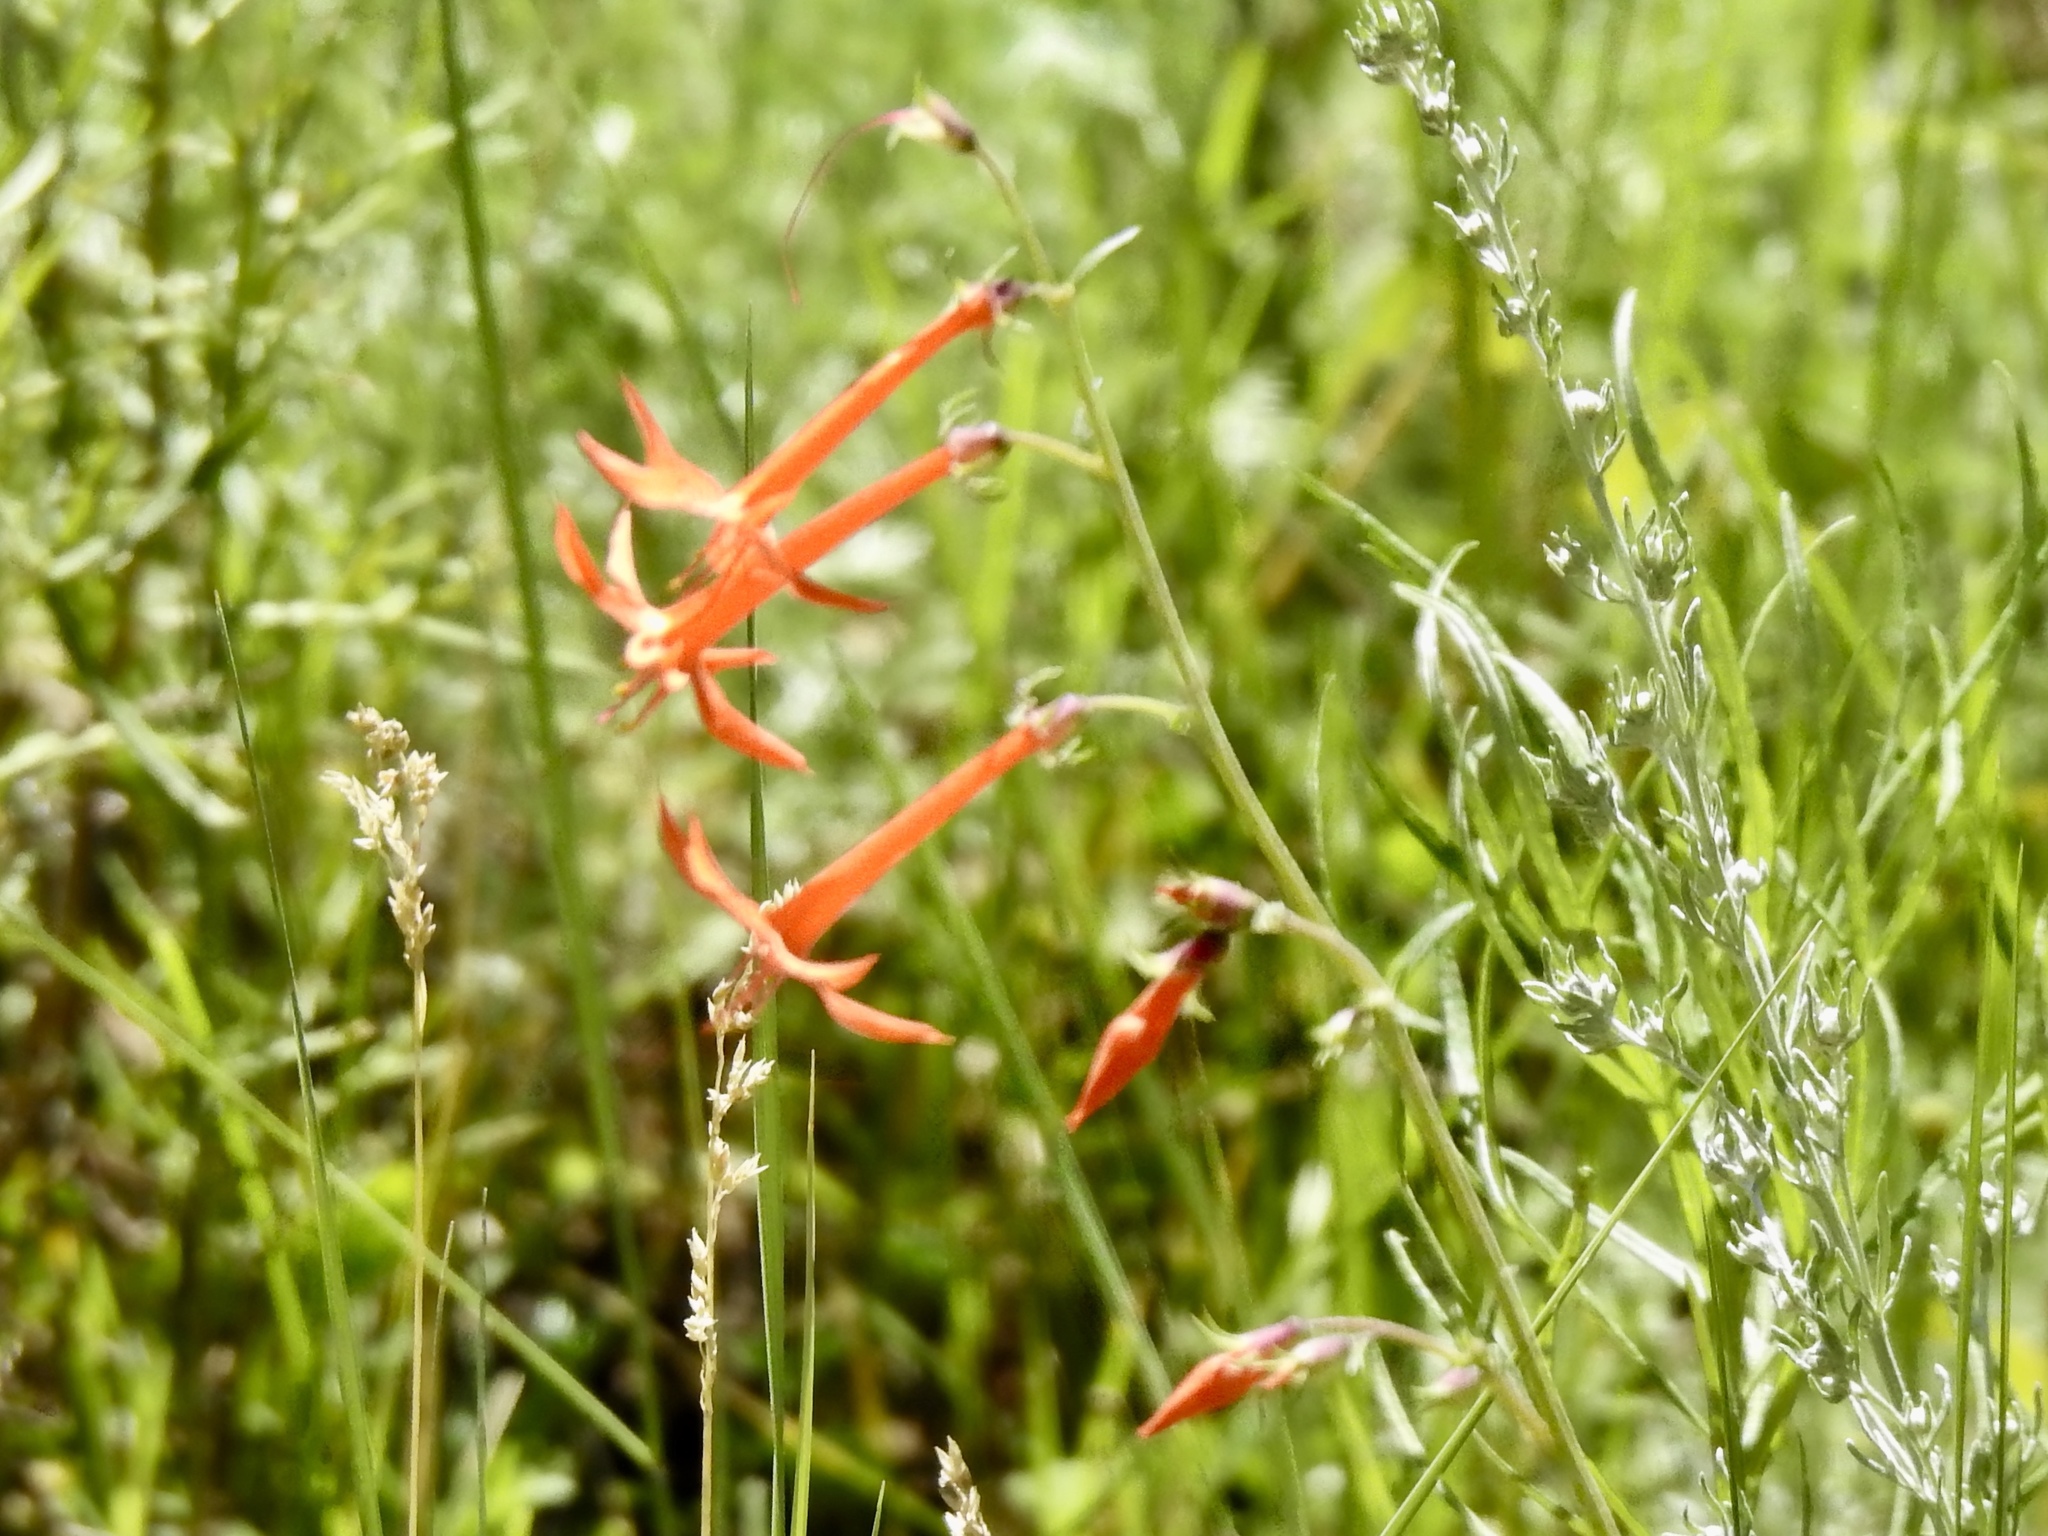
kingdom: Plantae
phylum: Tracheophyta
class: Magnoliopsida
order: Ericales
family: Polemoniaceae
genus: Ipomopsis
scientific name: Ipomopsis aggregata
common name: Scarlet gilia
